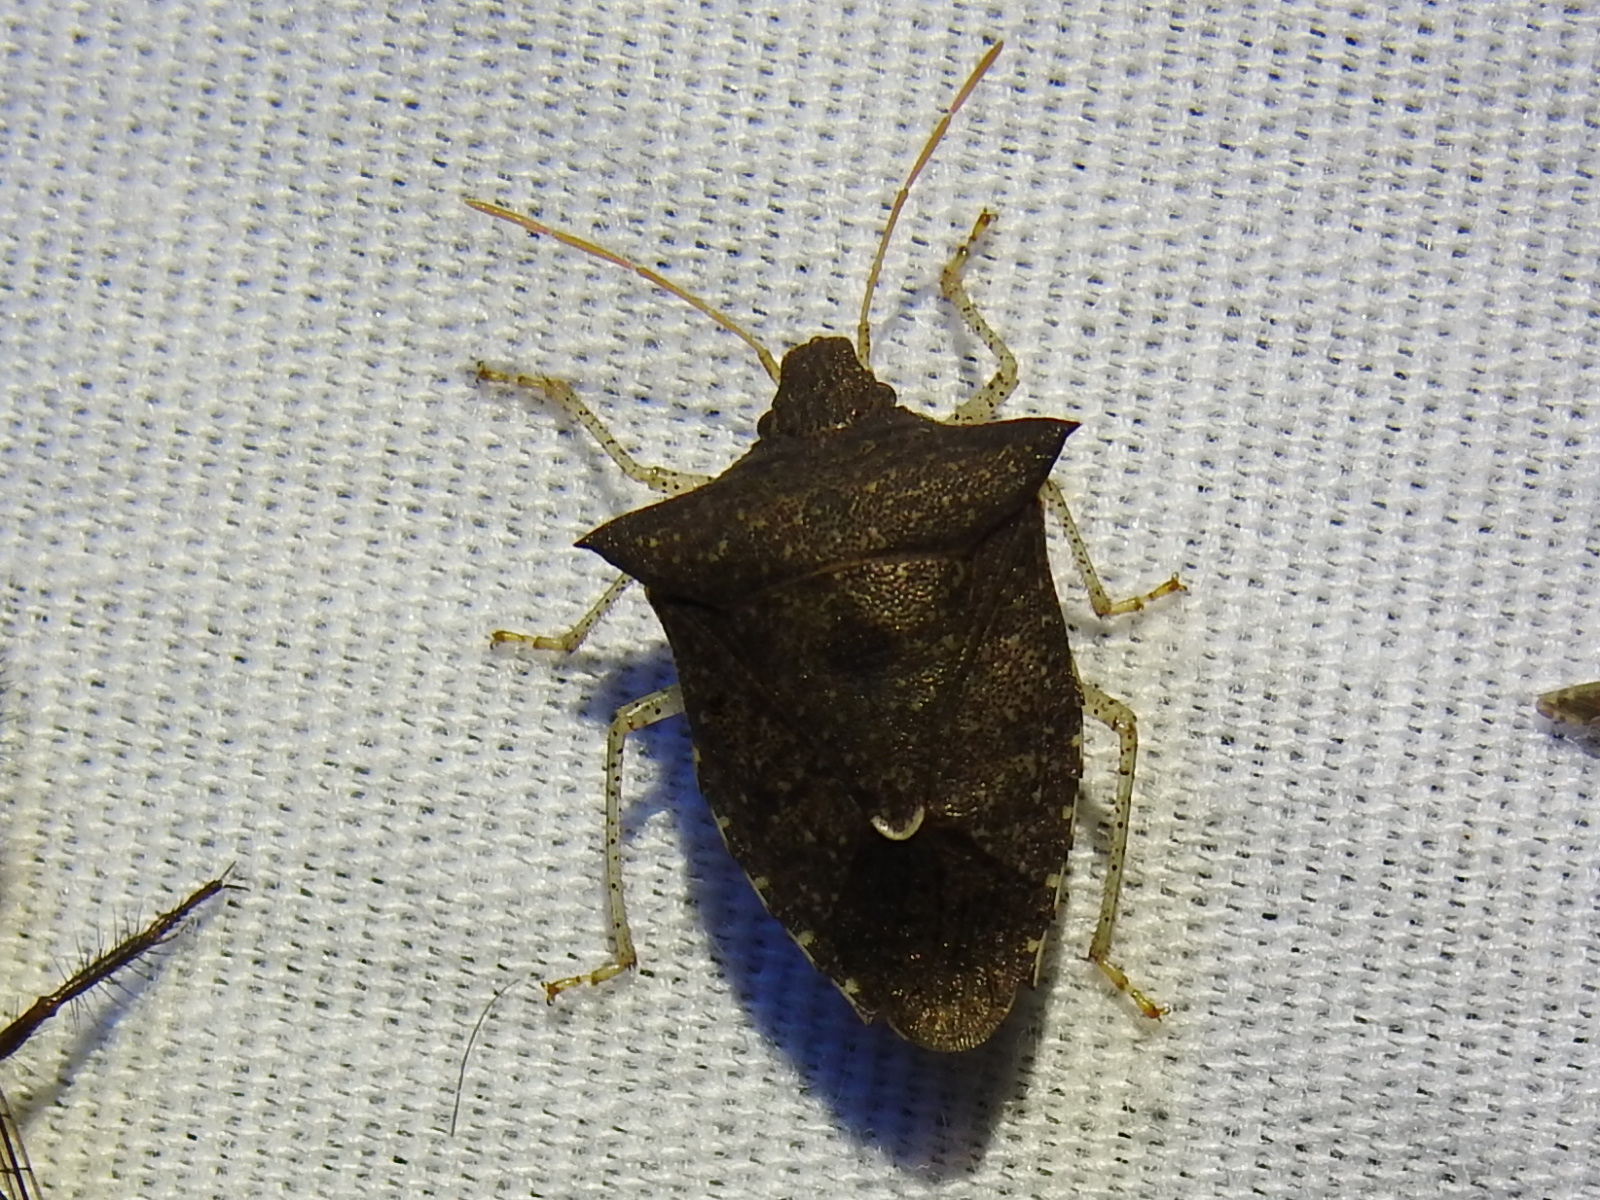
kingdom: Animalia
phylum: Arthropoda
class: Insecta
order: Hemiptera
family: Pentatomidae
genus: Euschistus
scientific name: Euschistus tristigmus
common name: Dusky stink bug
